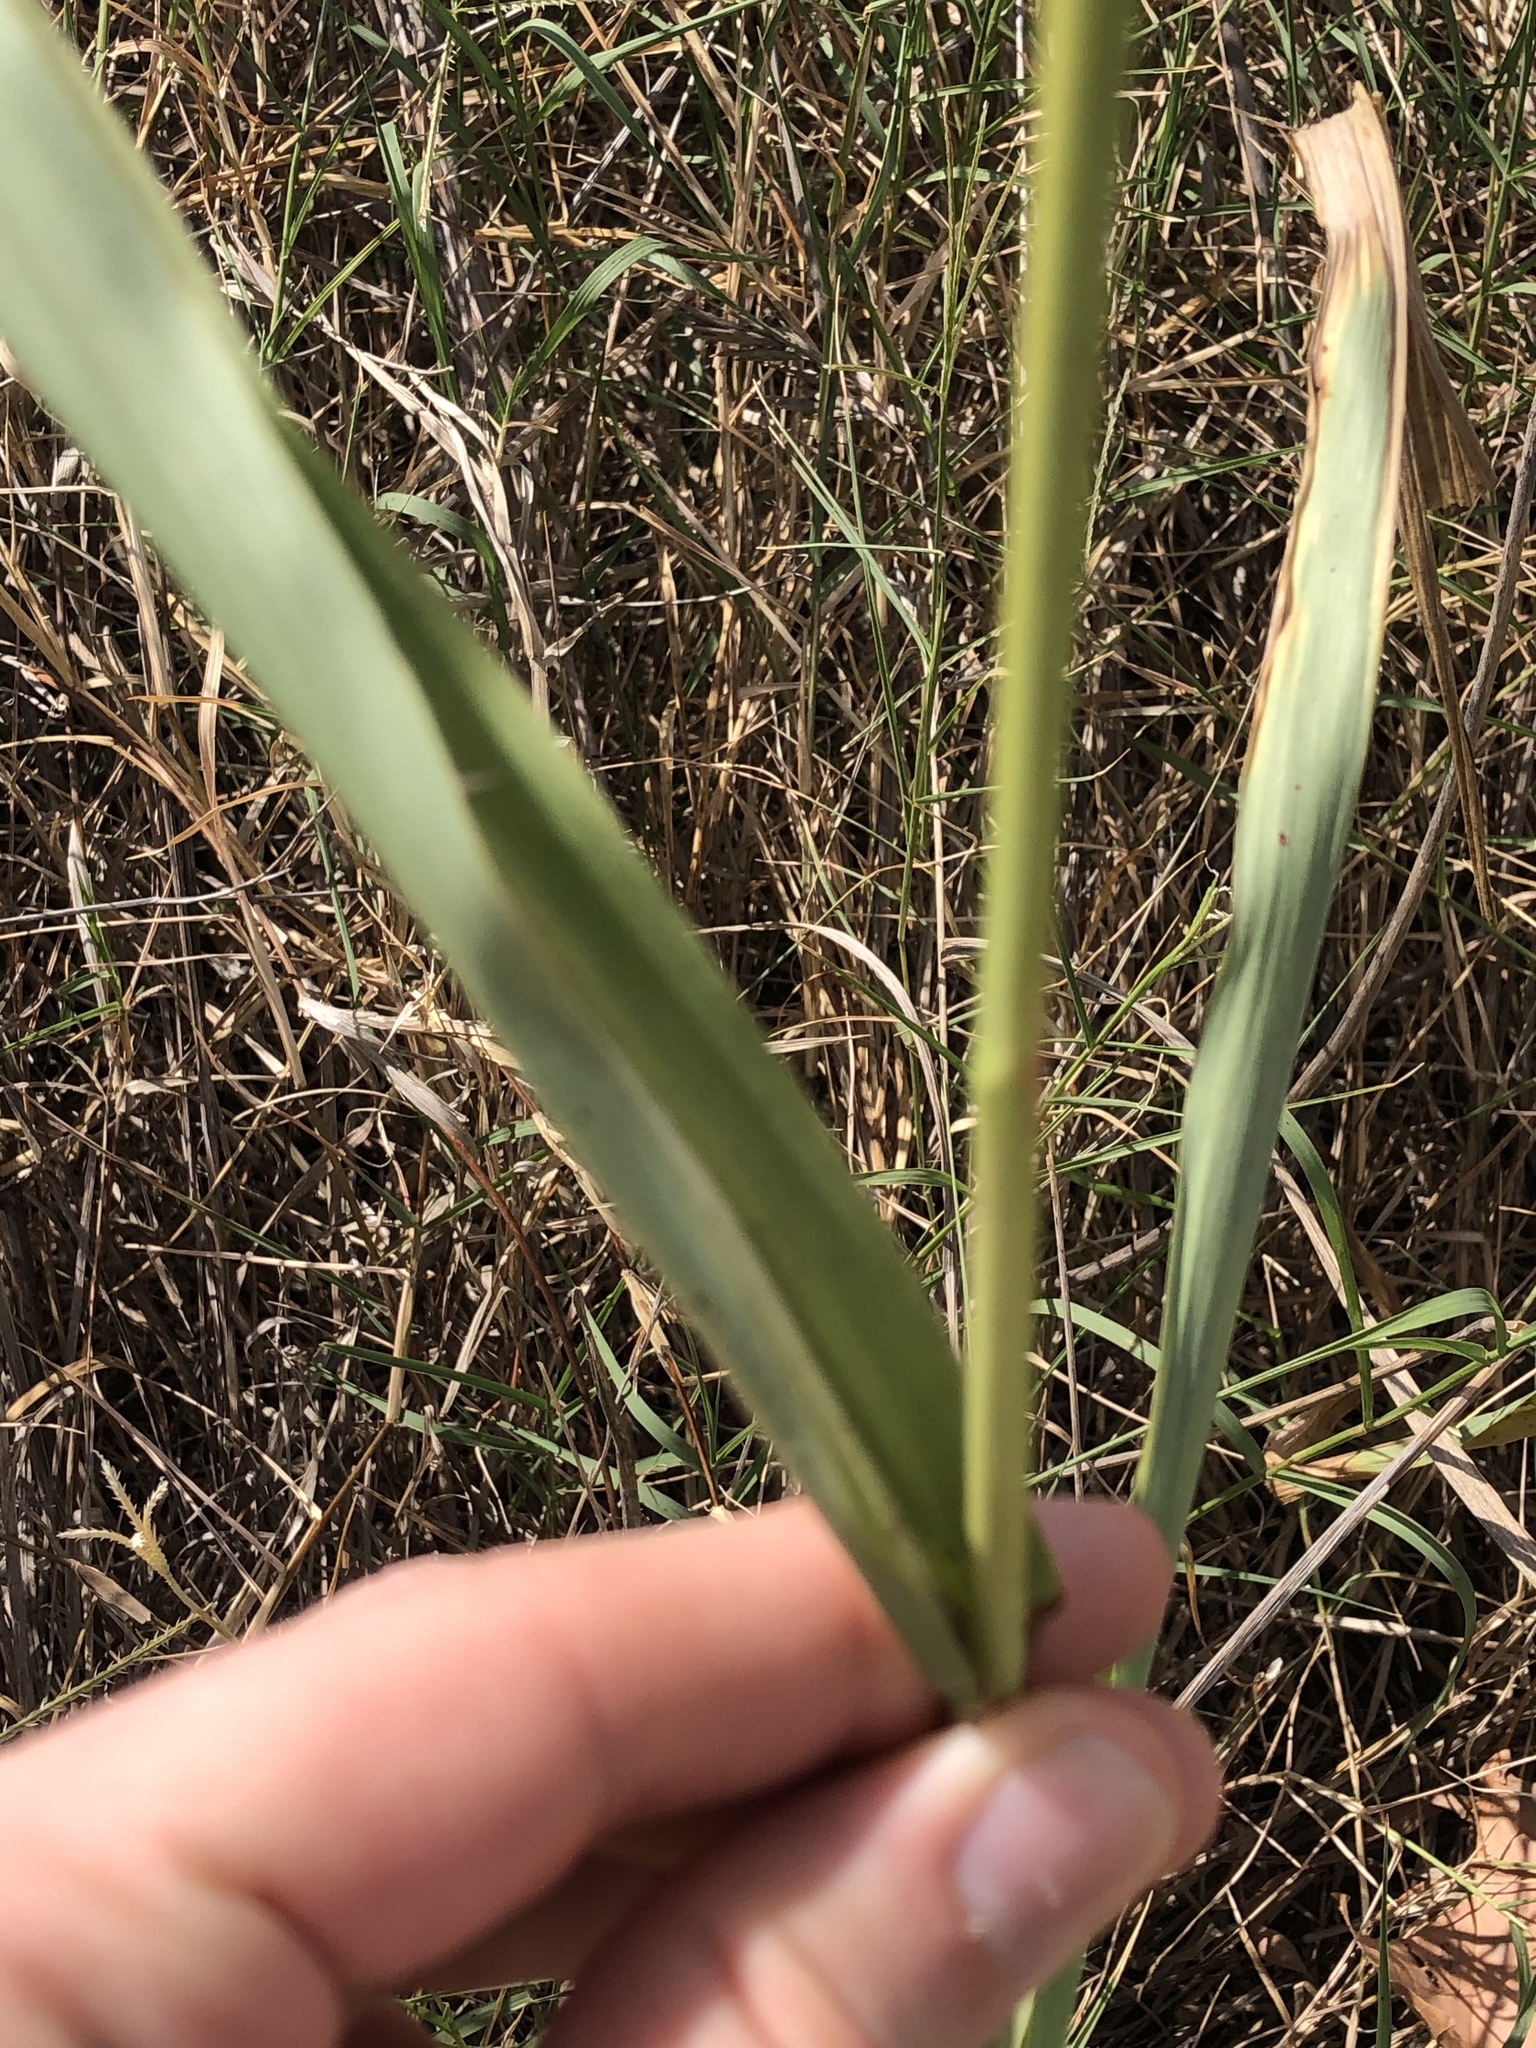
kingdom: Plantae
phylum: Tracheophyta
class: Liliopsida
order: Poales
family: Poaceae
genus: Sorghum
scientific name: Sorghum halepense
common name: Johnson-grass
